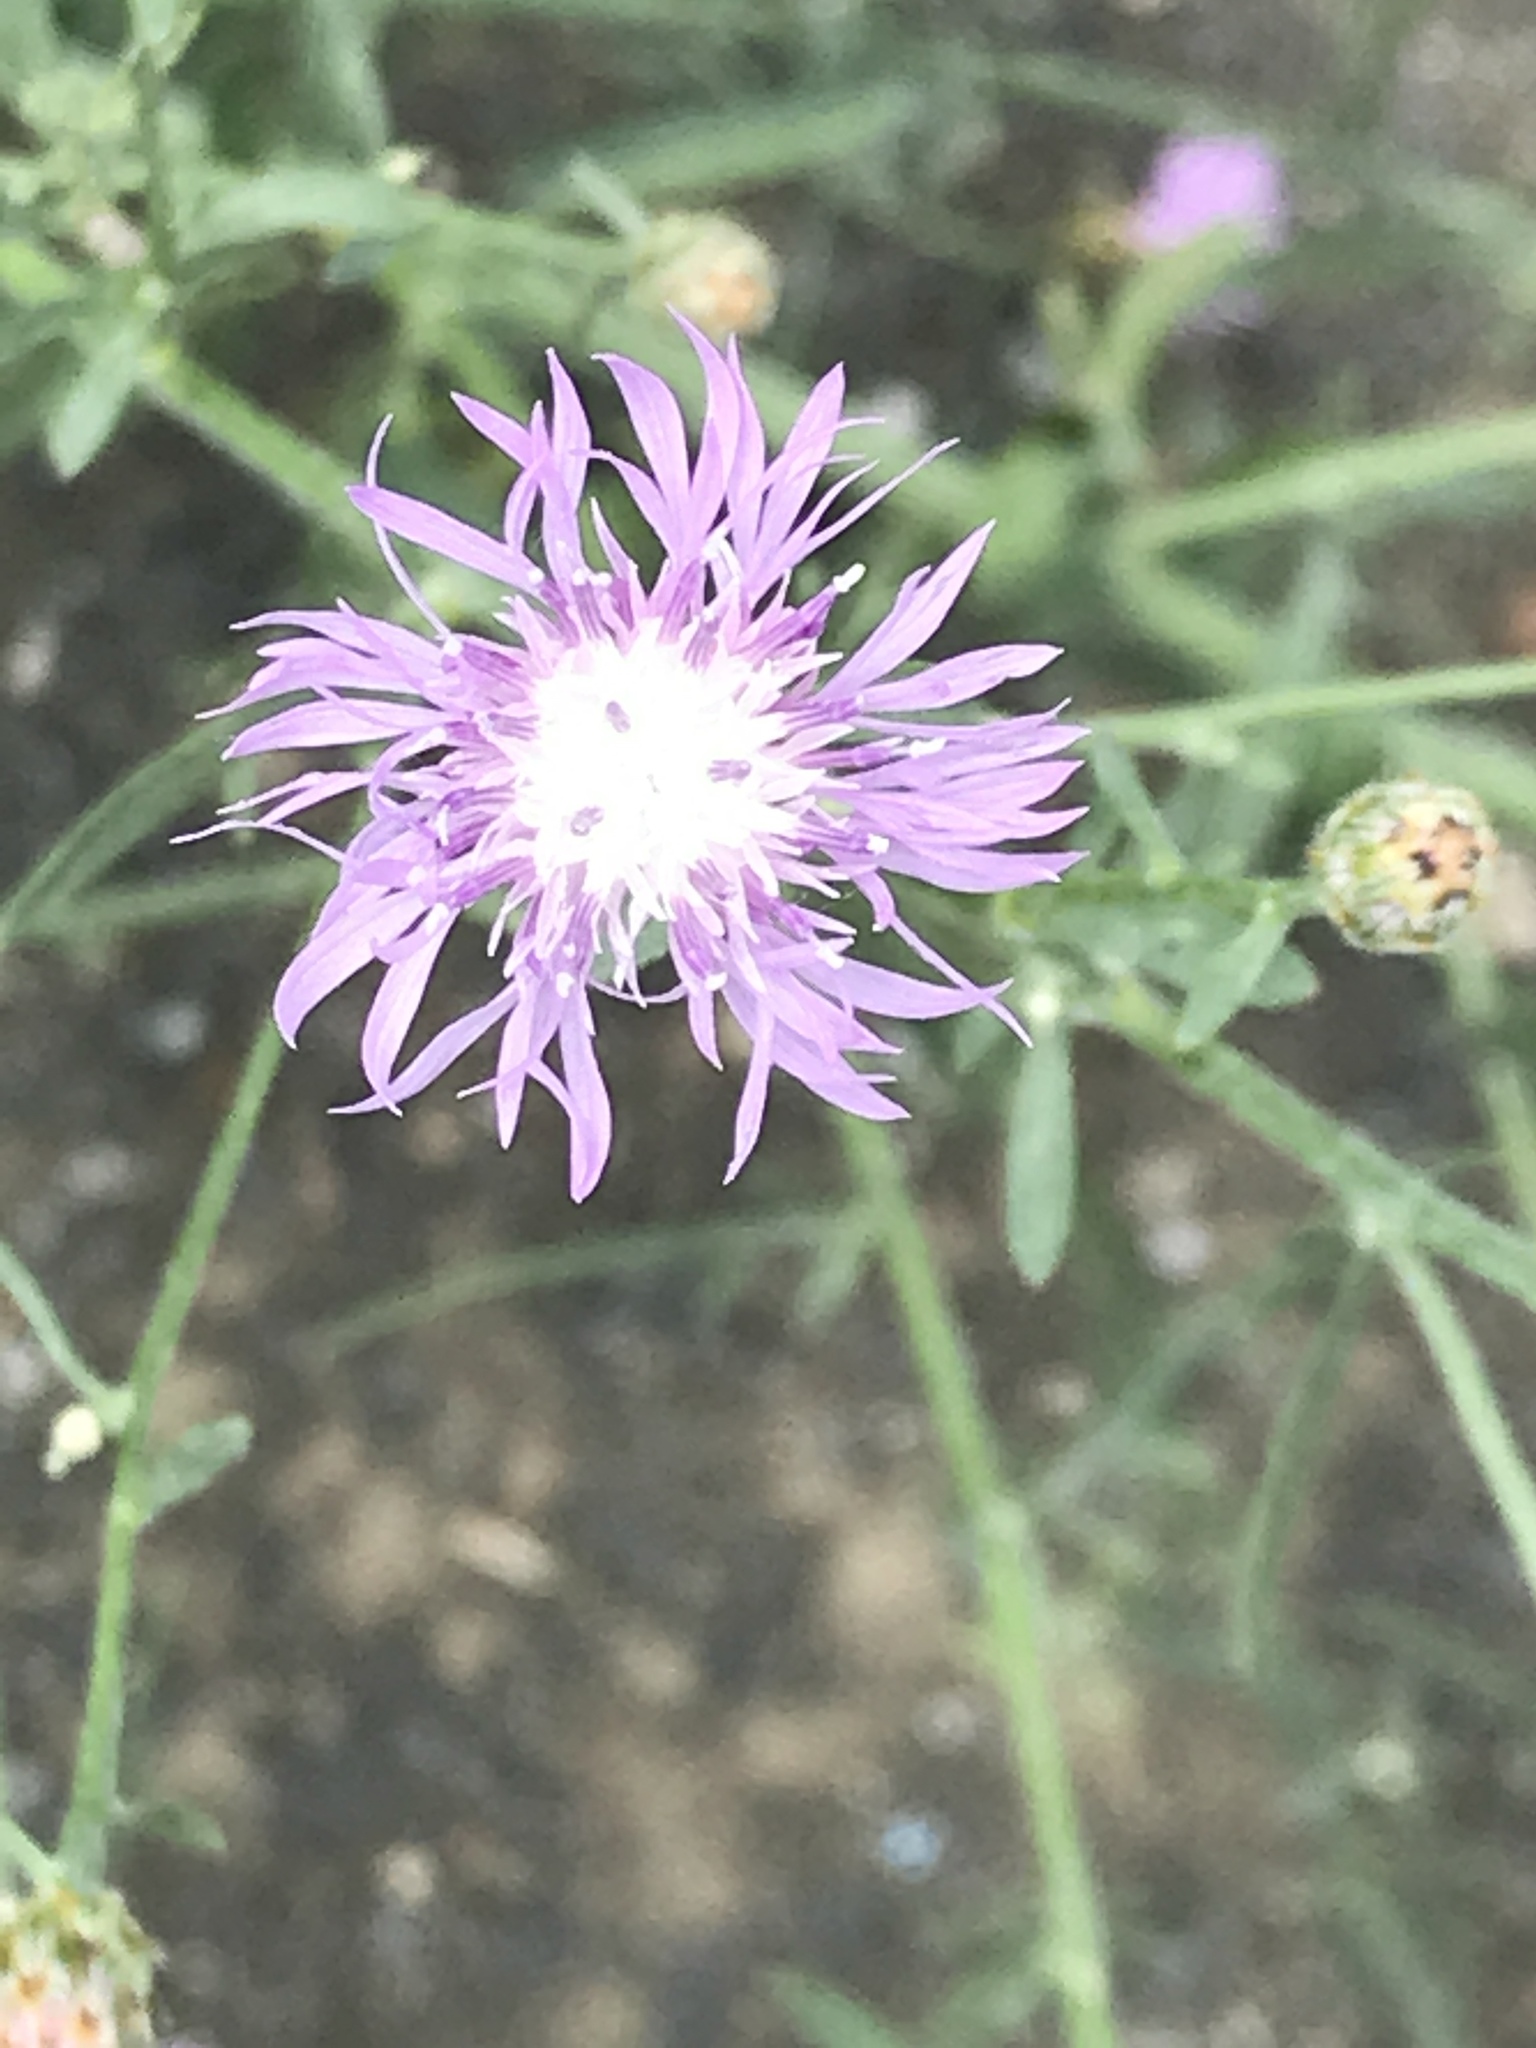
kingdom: Plantae
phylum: Tracheophyta
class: Magnoliopsida
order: Asterales
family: Asteraceae
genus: Centaurea
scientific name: Centaurea stoebe
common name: Spotted knapweed
